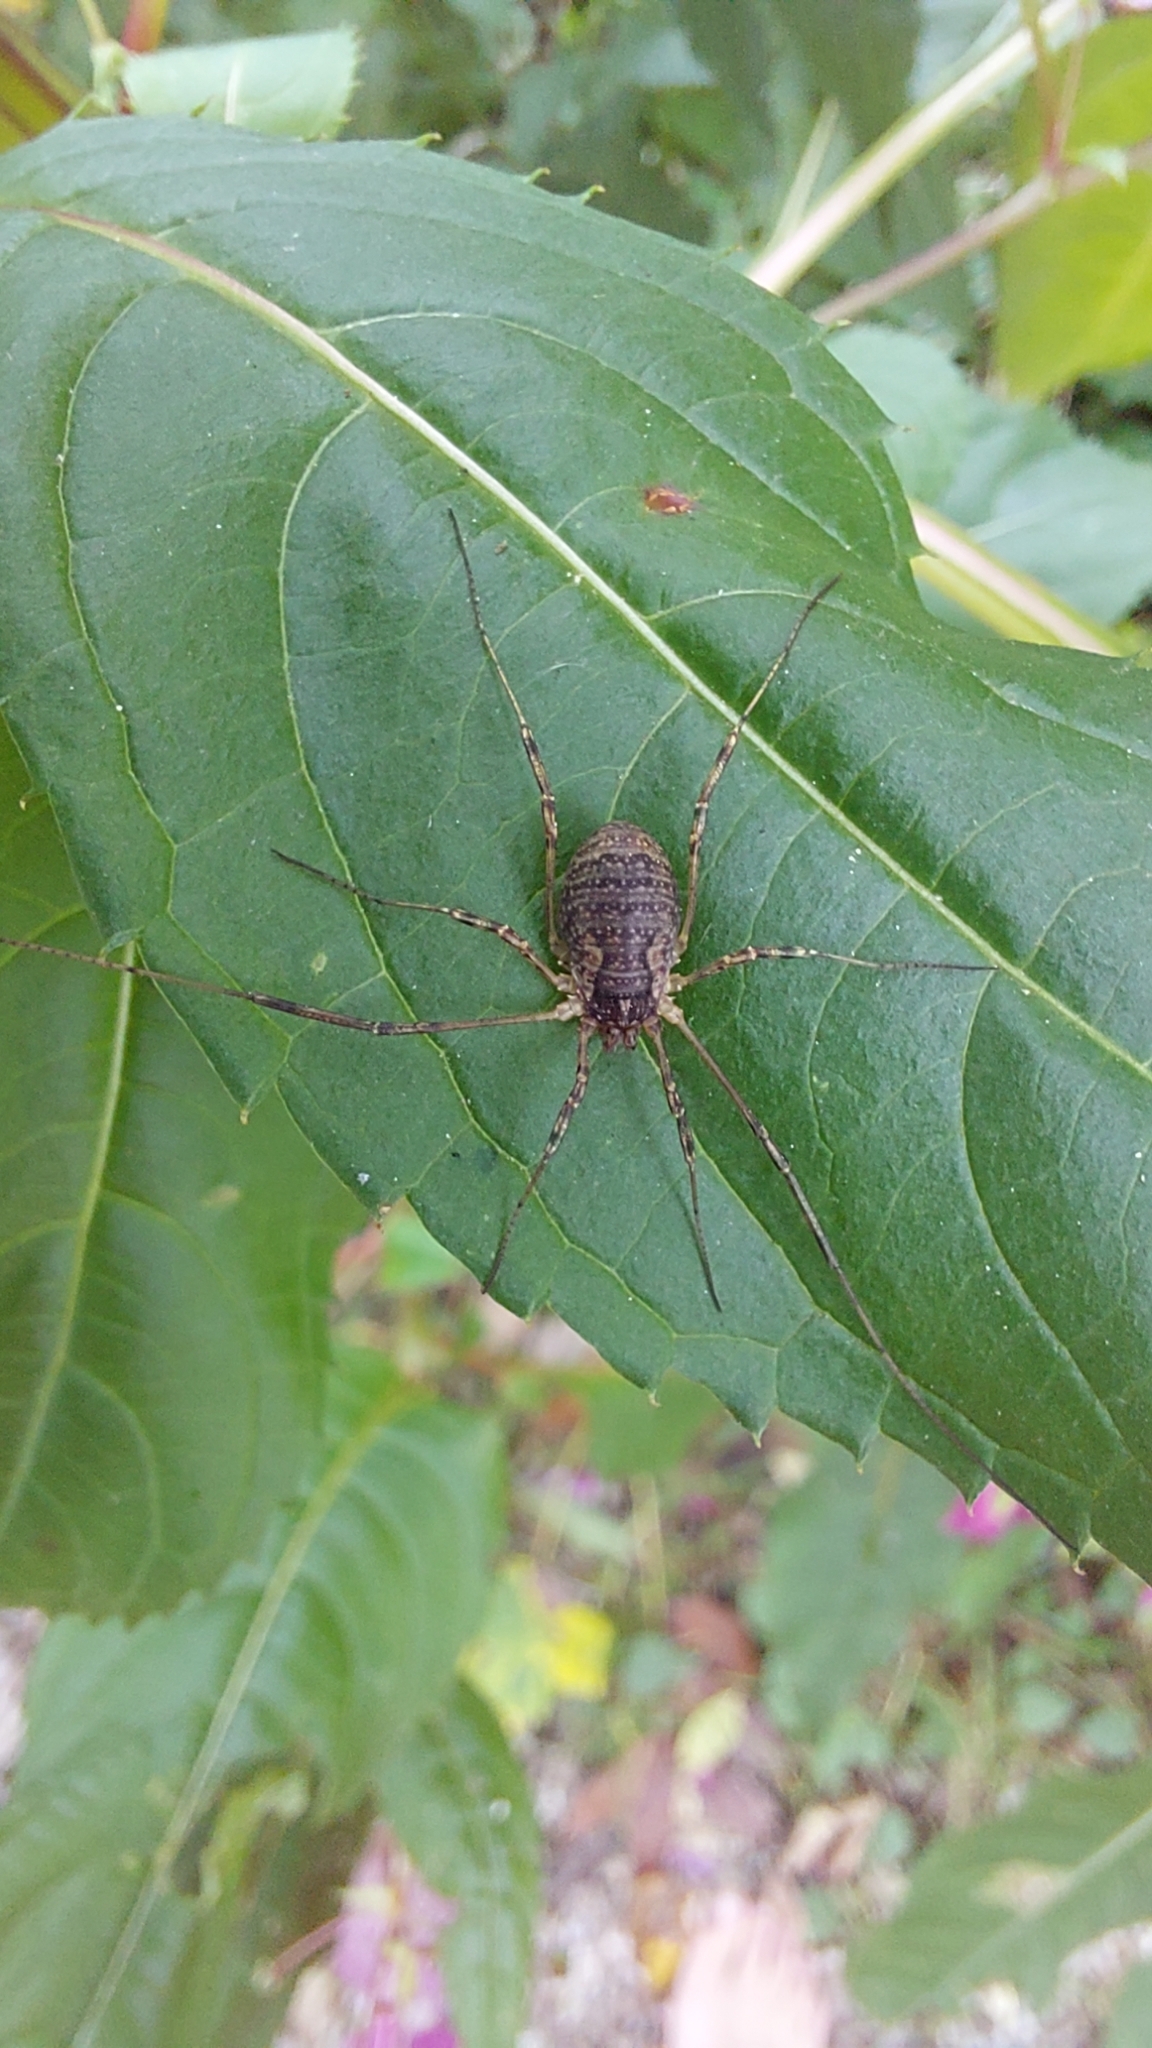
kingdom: Animalia
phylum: Arthropoda
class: Arachnida
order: Opiliones
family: Phalangiidae
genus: Oligolophus
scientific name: Oligolophus tridens
